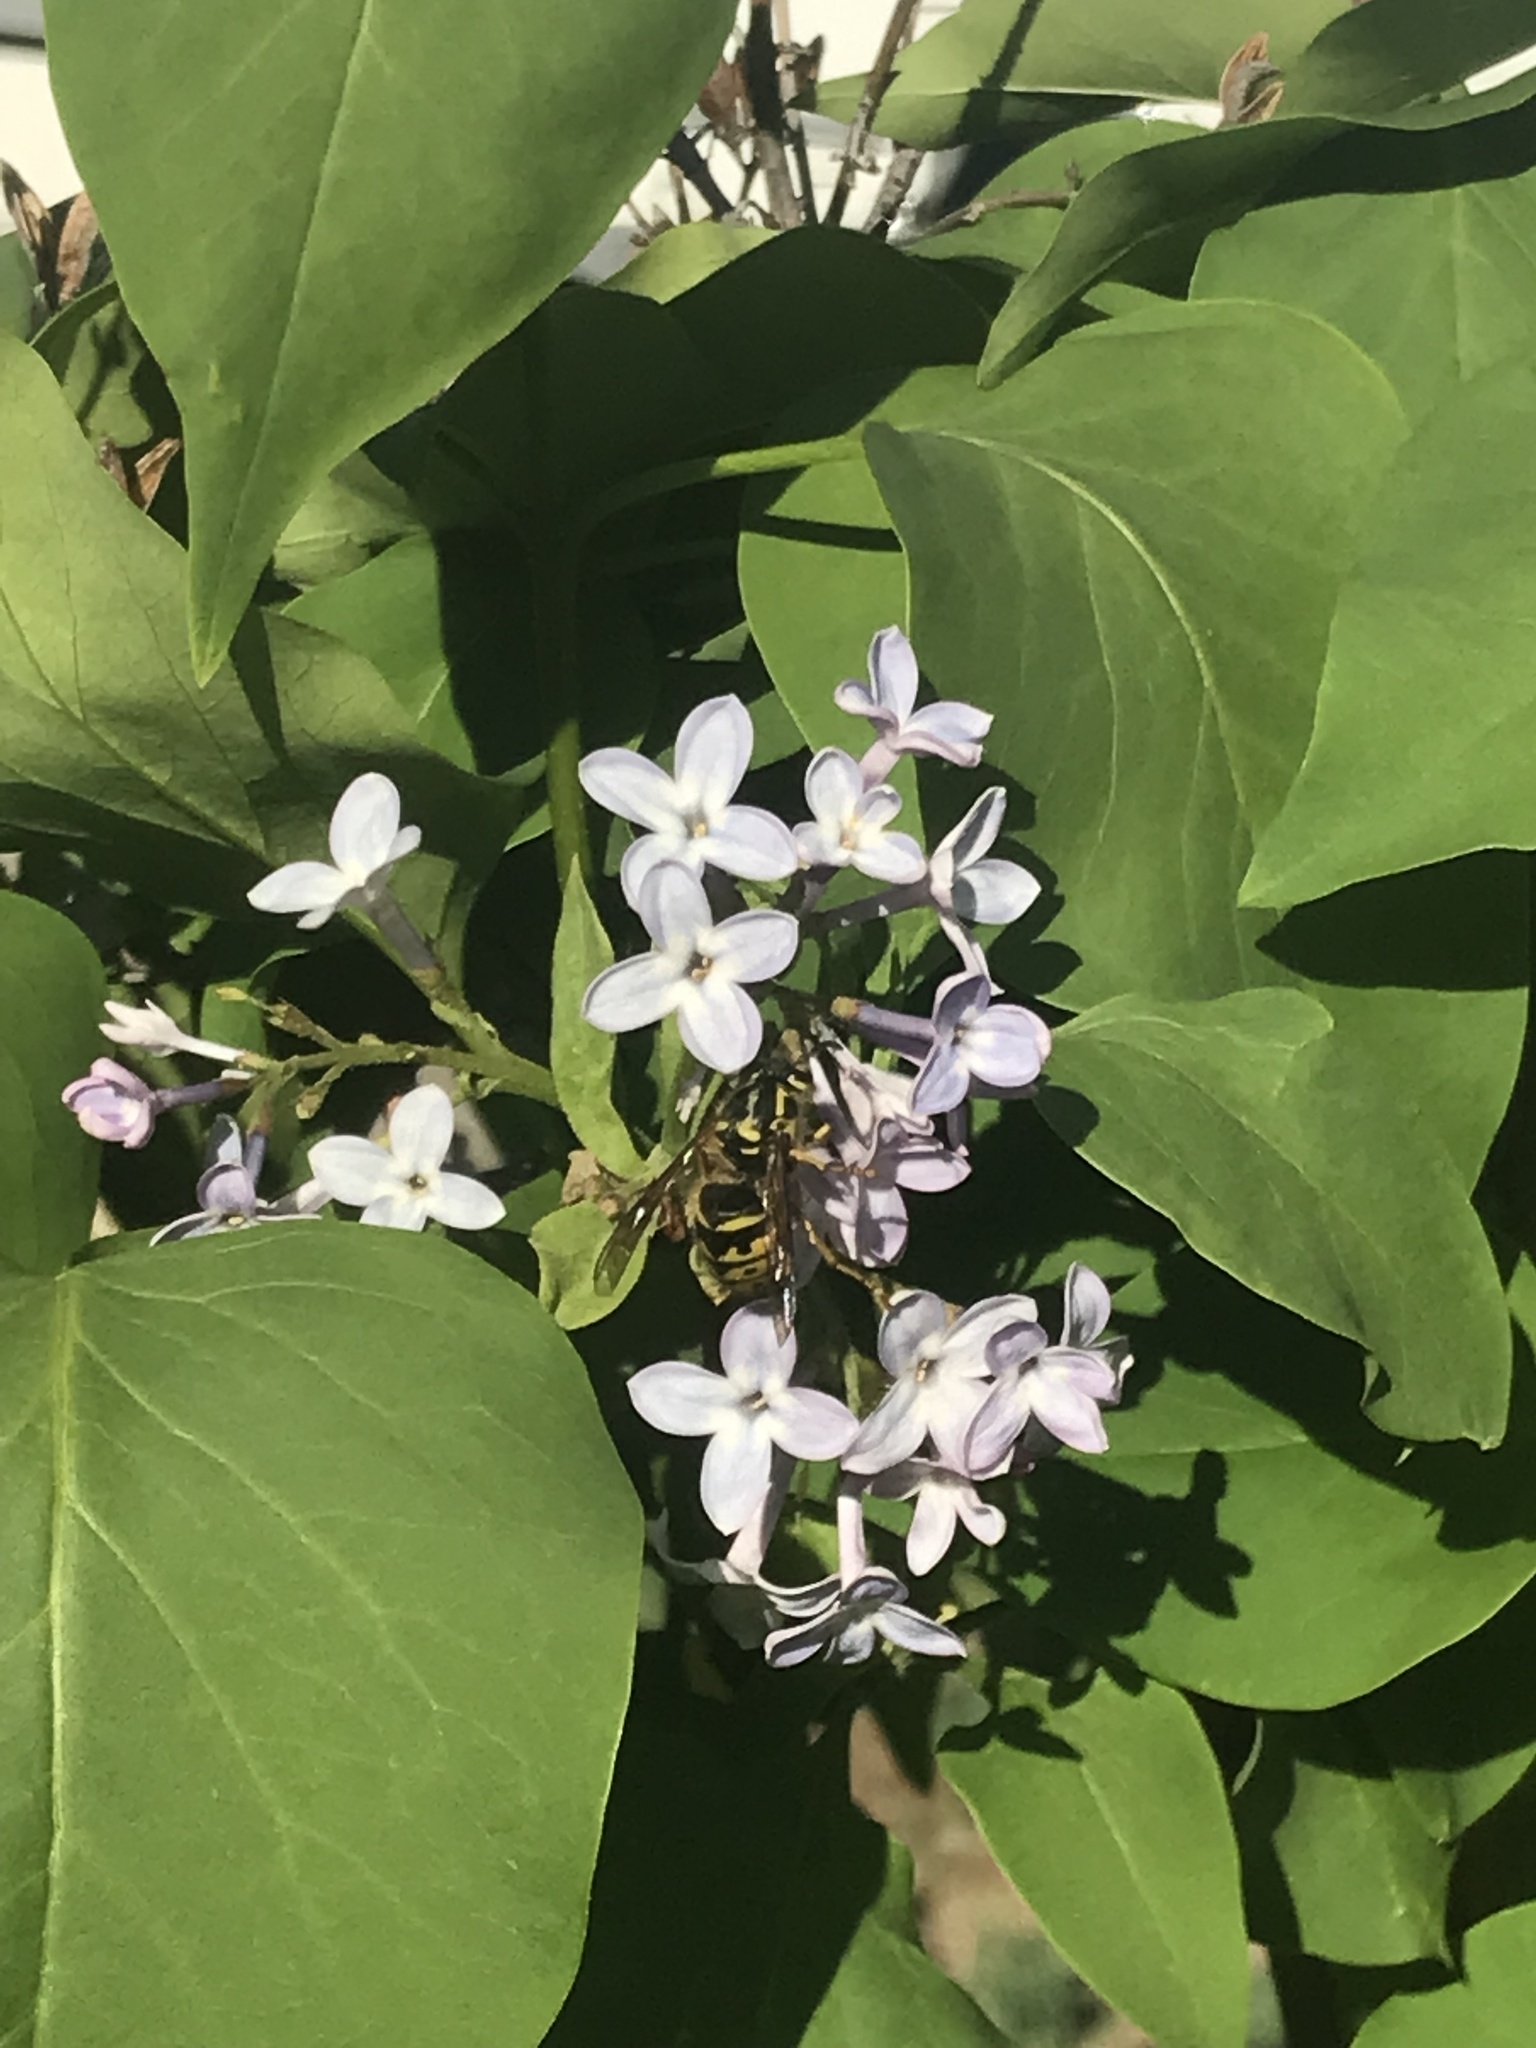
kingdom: Animalia
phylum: Arthropoda
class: Insecta
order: Hymenoptera
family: Vespidae
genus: Dolichovespula
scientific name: Dolichovespula arenaria
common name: Aerial yellowjacket
